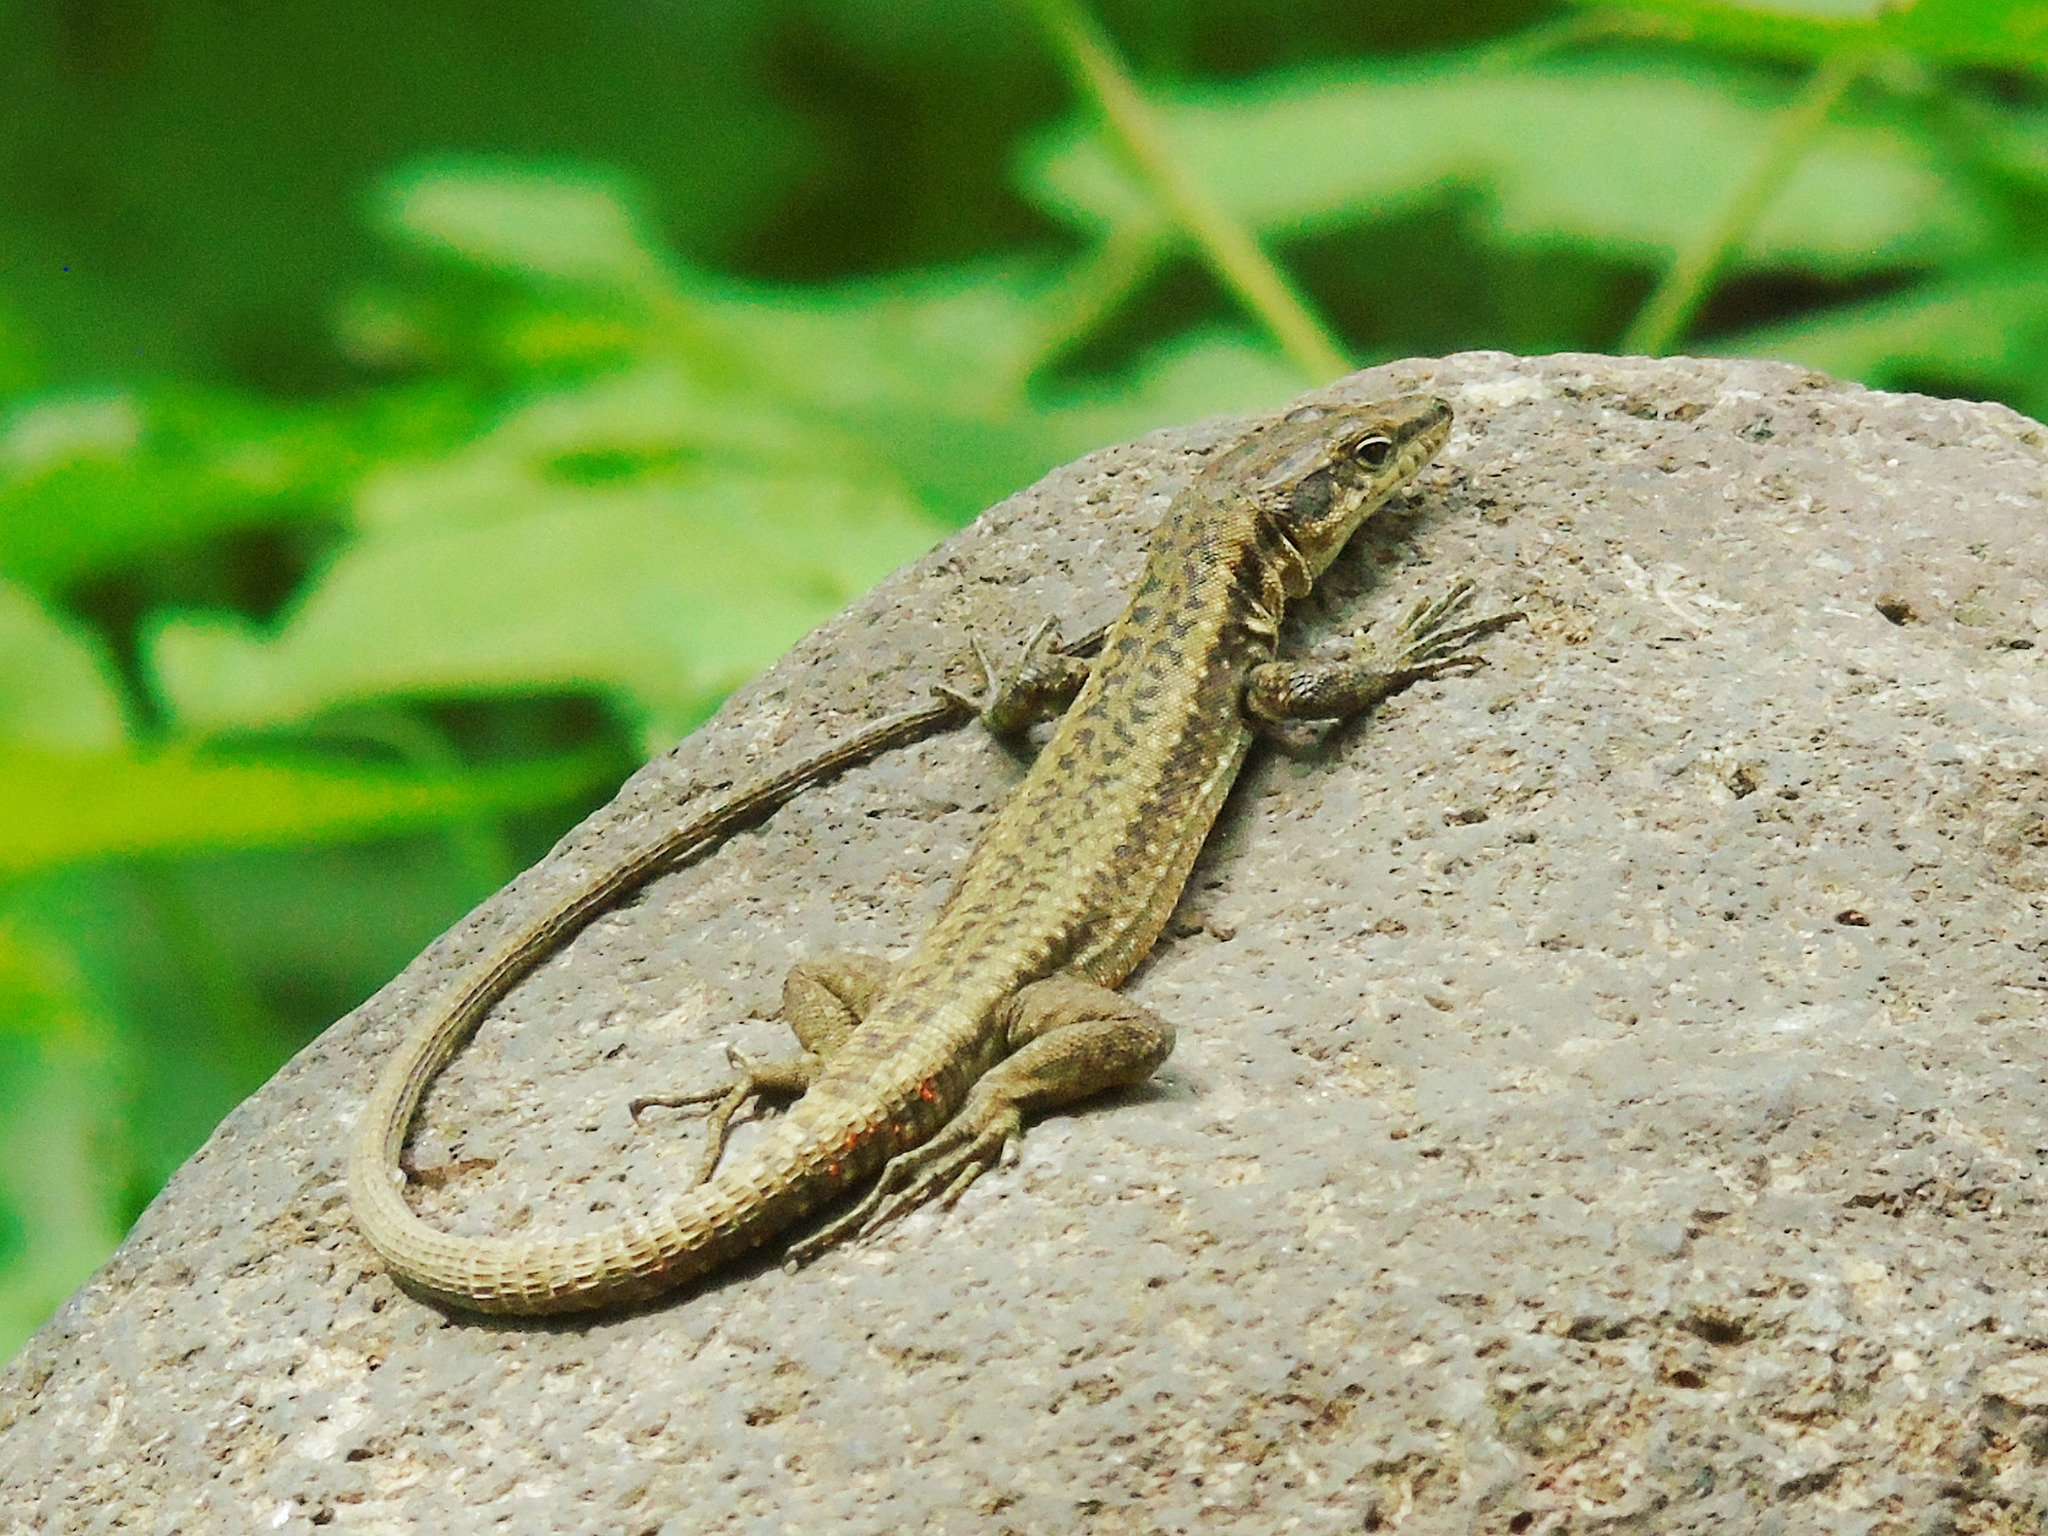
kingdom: Animalia
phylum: Chordata
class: Squamata
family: Lacertidae
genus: Darevskia
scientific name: Darevskia
